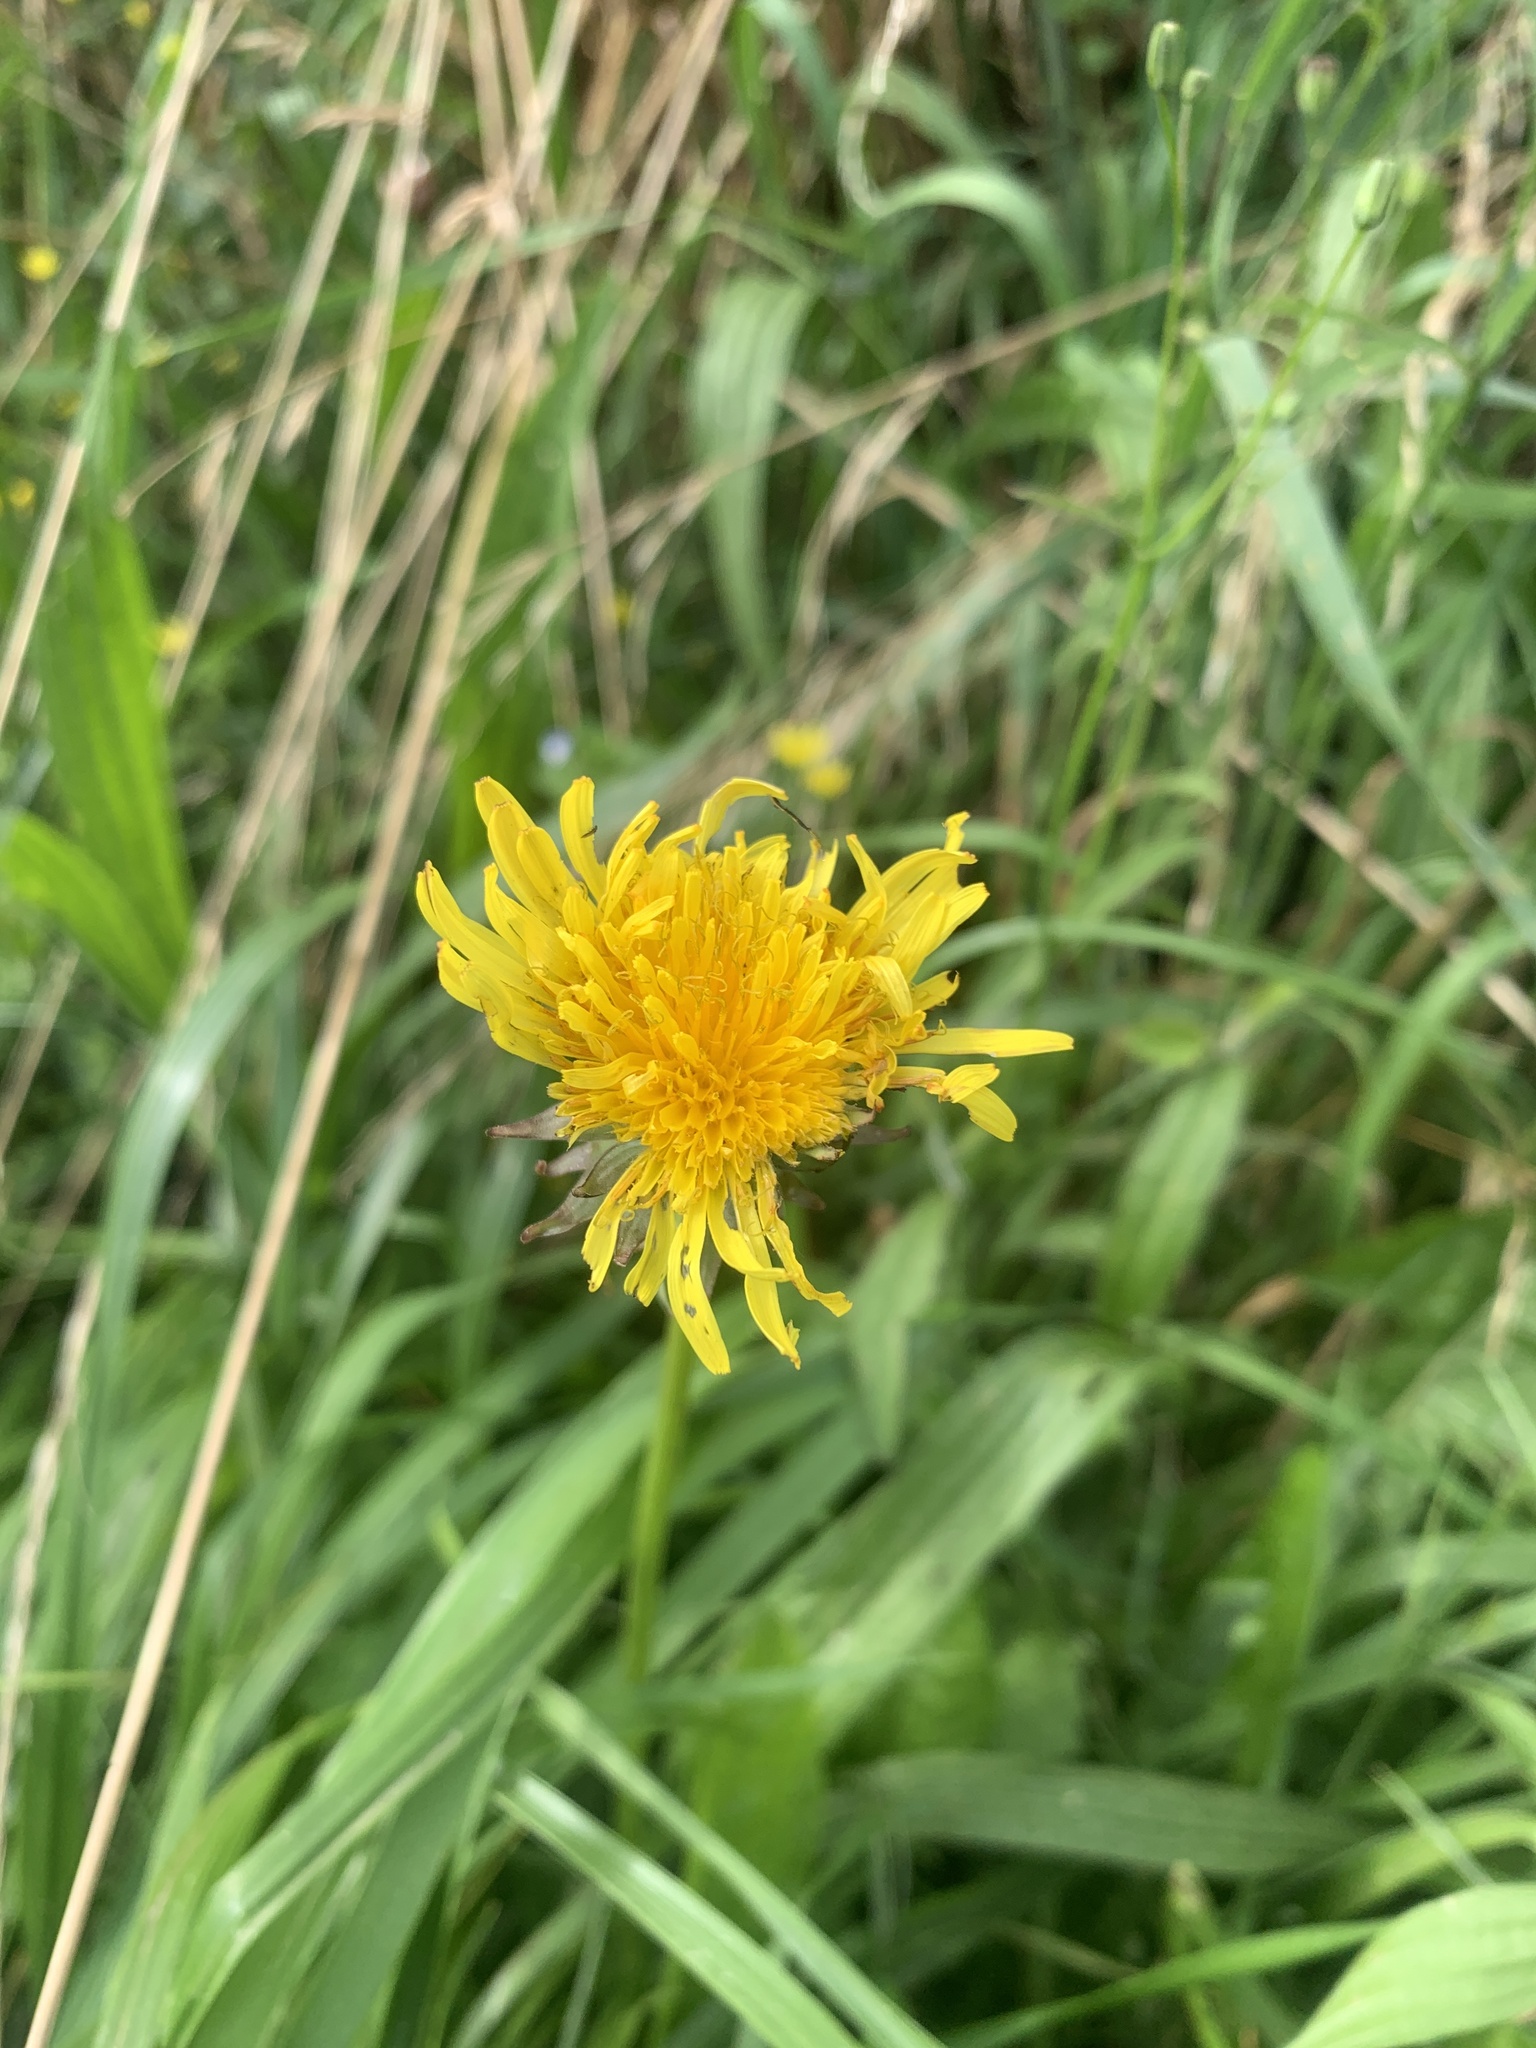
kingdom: Plantae
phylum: Tracheophyta
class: Magnoliopsida
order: Asterales
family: Asteraceae
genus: Taraxacum
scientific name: Taraxacum officinale
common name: Common dandelion
